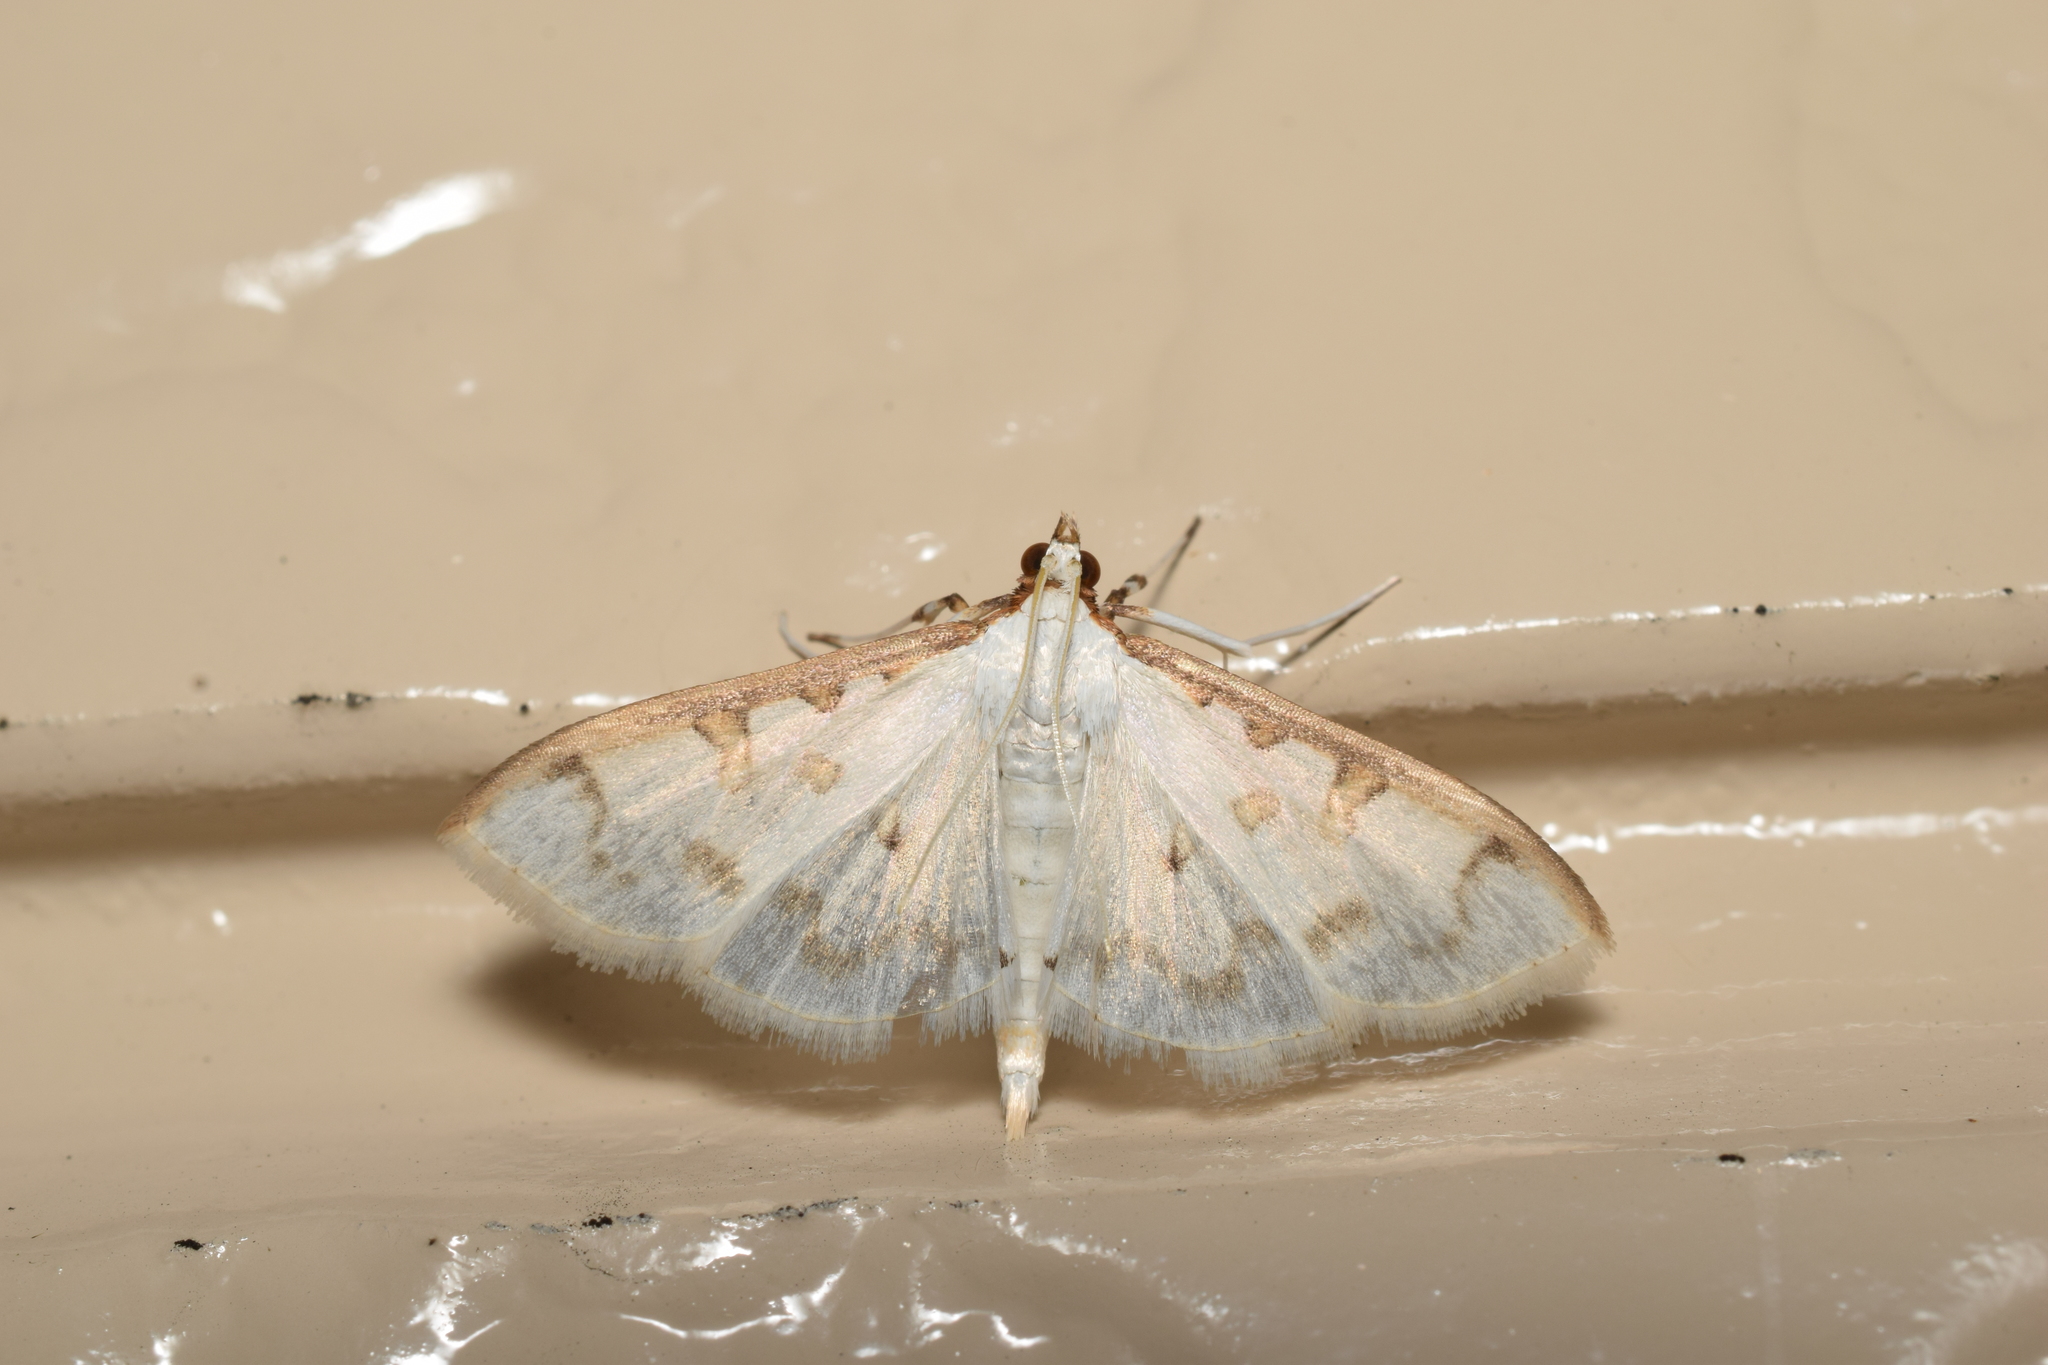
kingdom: Animalia
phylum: Arthropoda
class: Insecta
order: Lepidoptera
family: Crambidae
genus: Palpita
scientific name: Palpita inusitata
